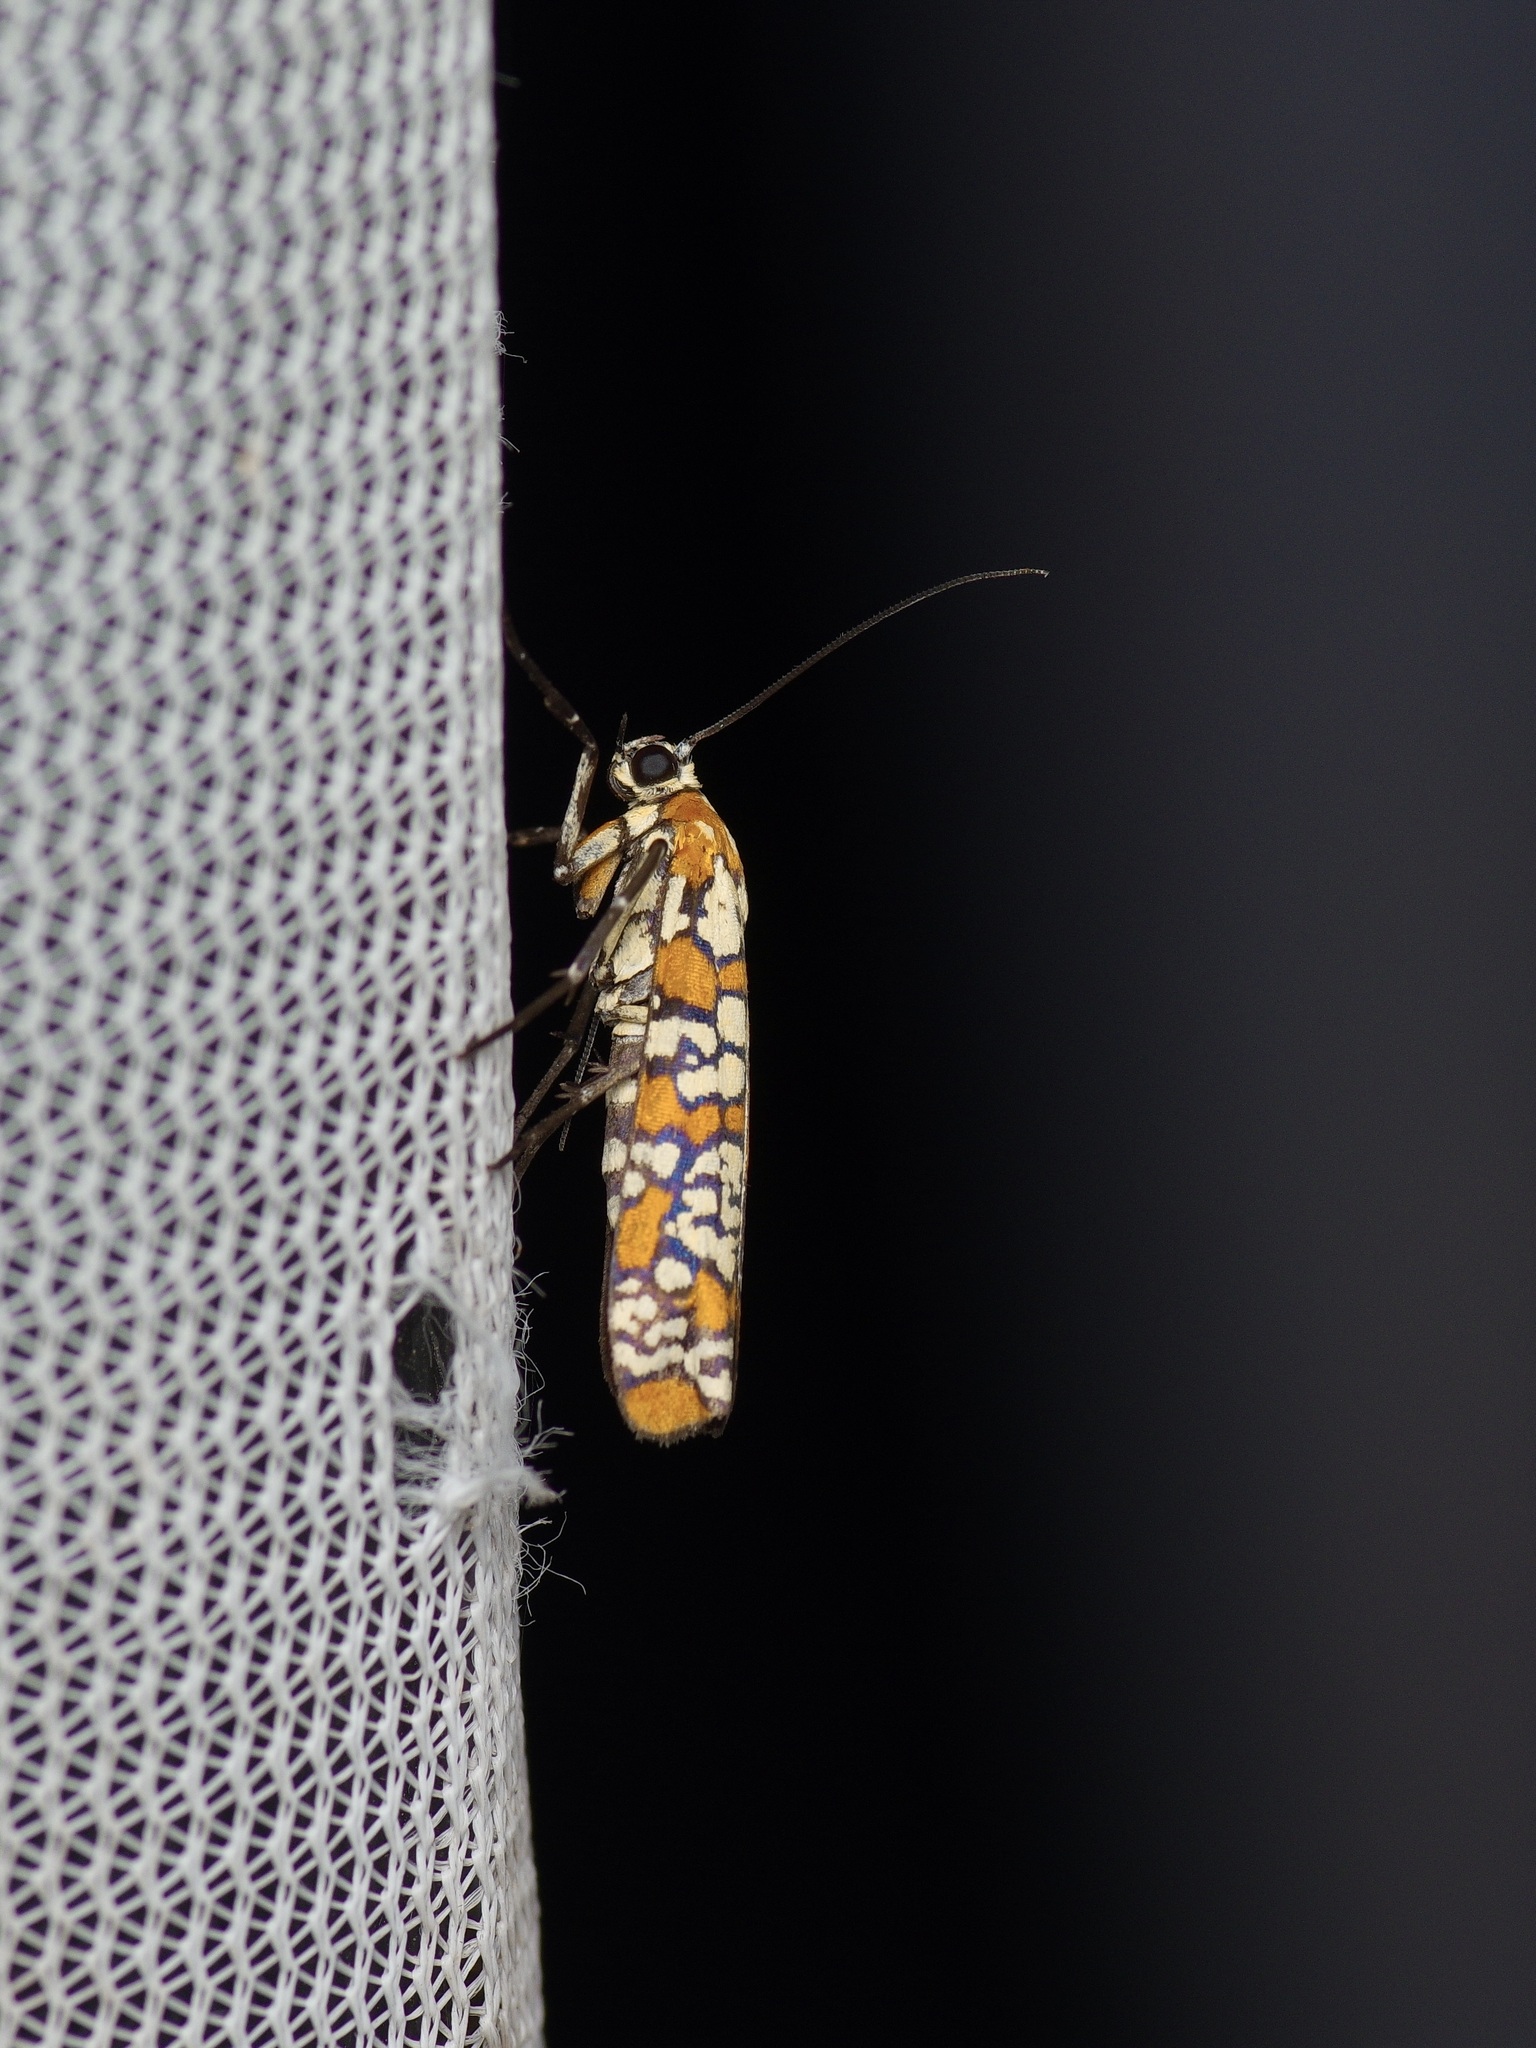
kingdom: Animalia
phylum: Arthropoda
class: Insecta
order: Lepidoptera
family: Attevidae
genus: Atteva
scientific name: Atteva punctella
